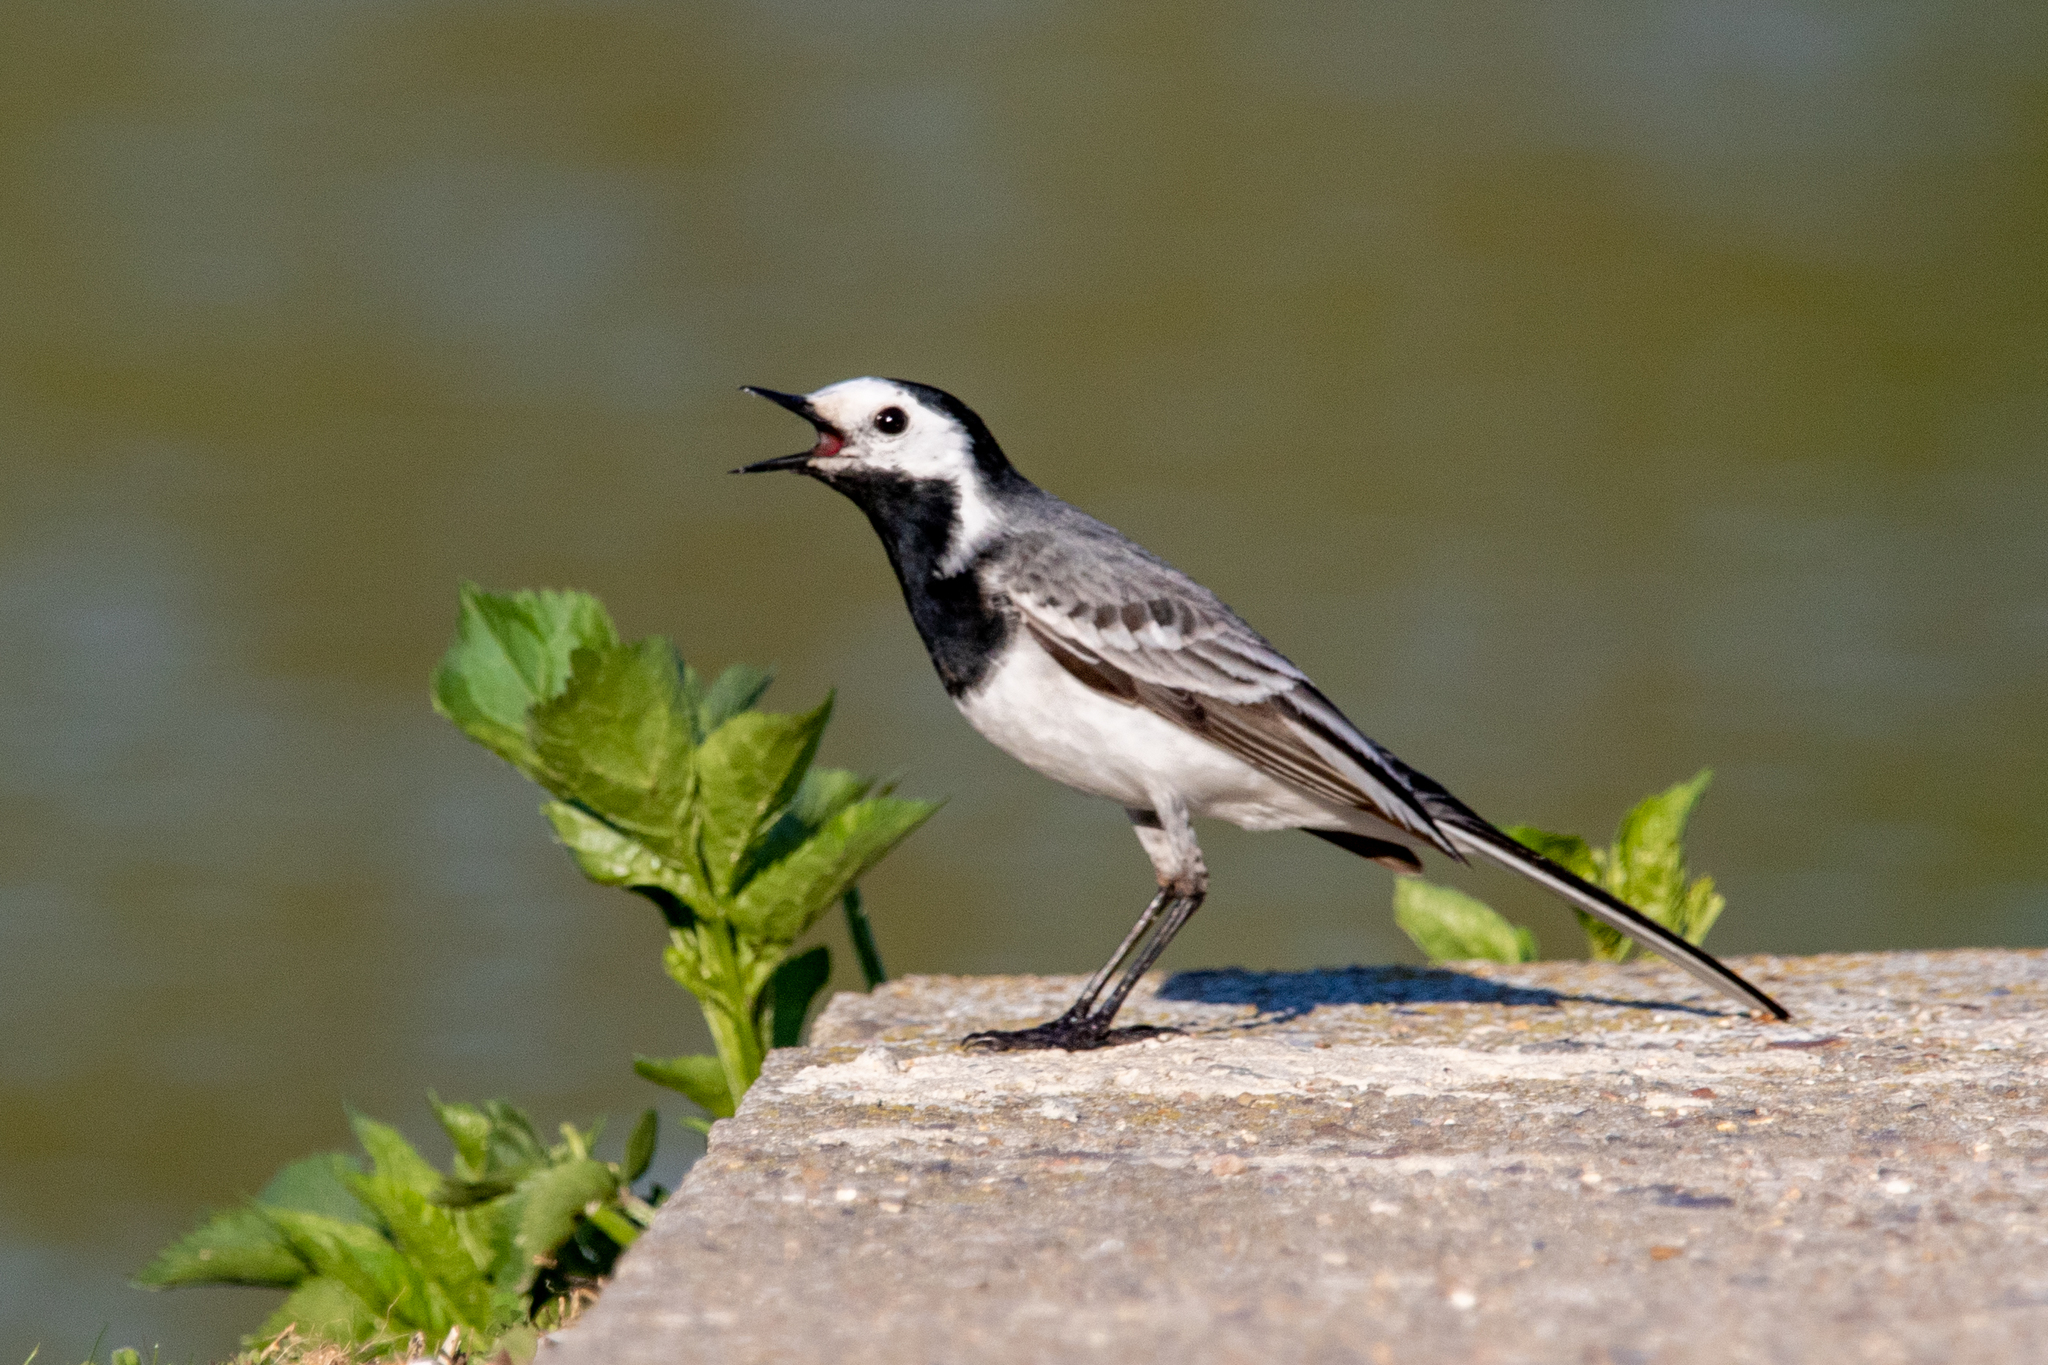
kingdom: Animalia
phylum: Chordata
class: Aves
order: Passeriformes
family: Motacillidae
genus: Motacilla
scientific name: Motacilla alba
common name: White wagtail
